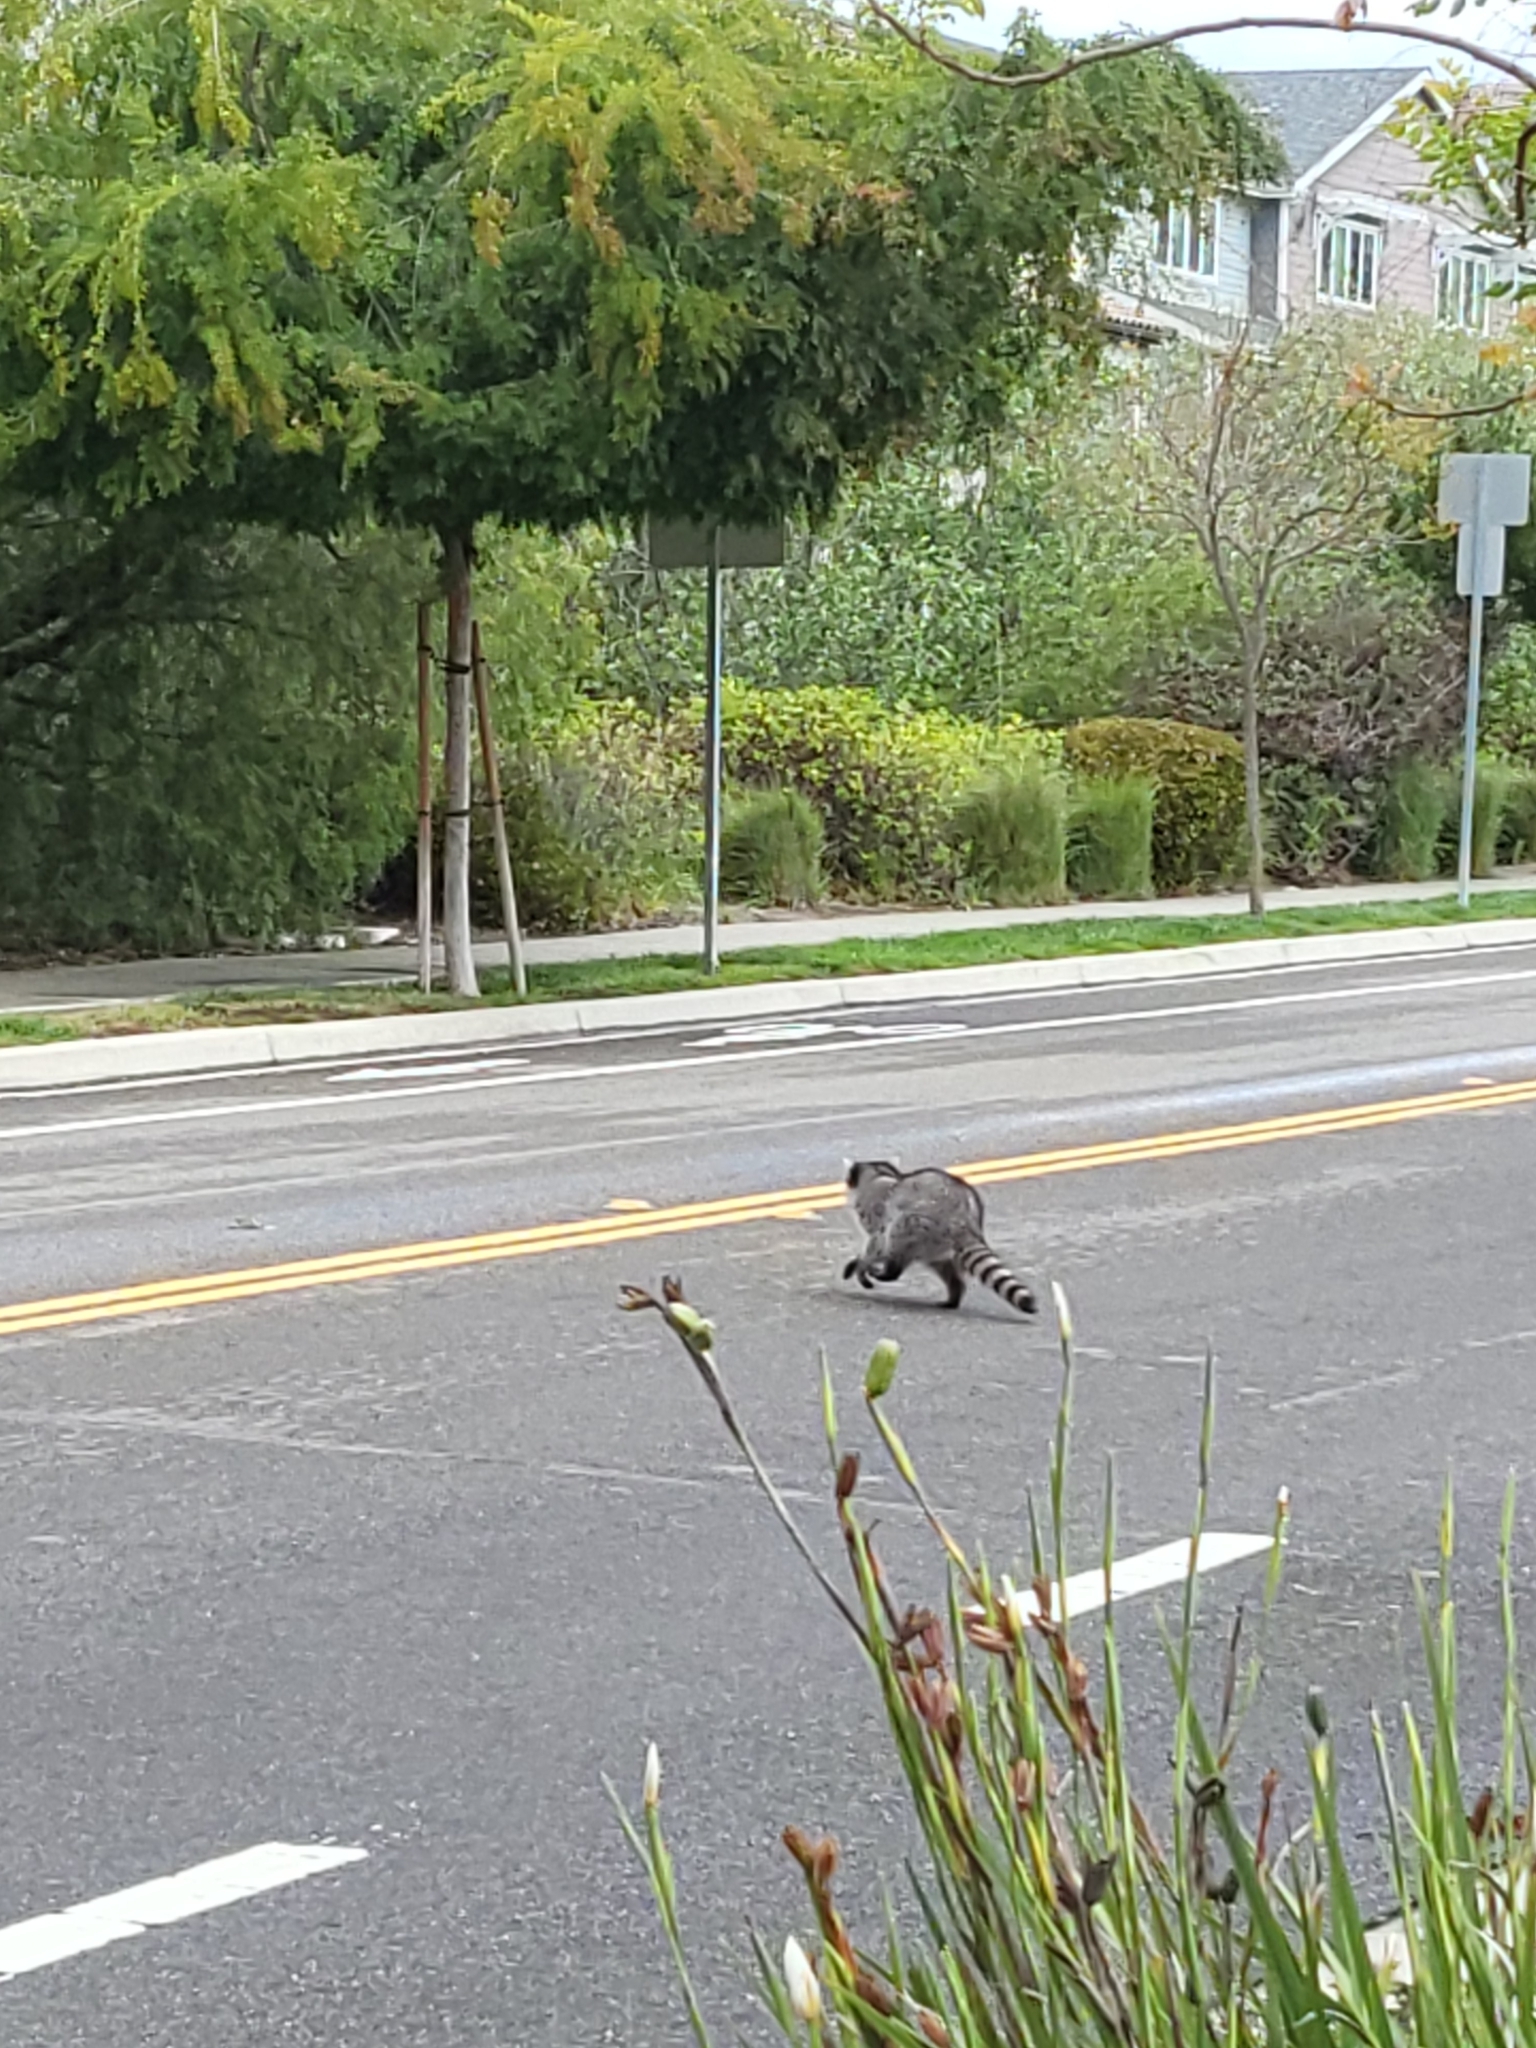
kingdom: Animalia
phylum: Chordata
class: Mammalia
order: Carnivora
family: Procyonidae
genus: Procyon
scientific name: Procyon lotor
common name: Raccoon
